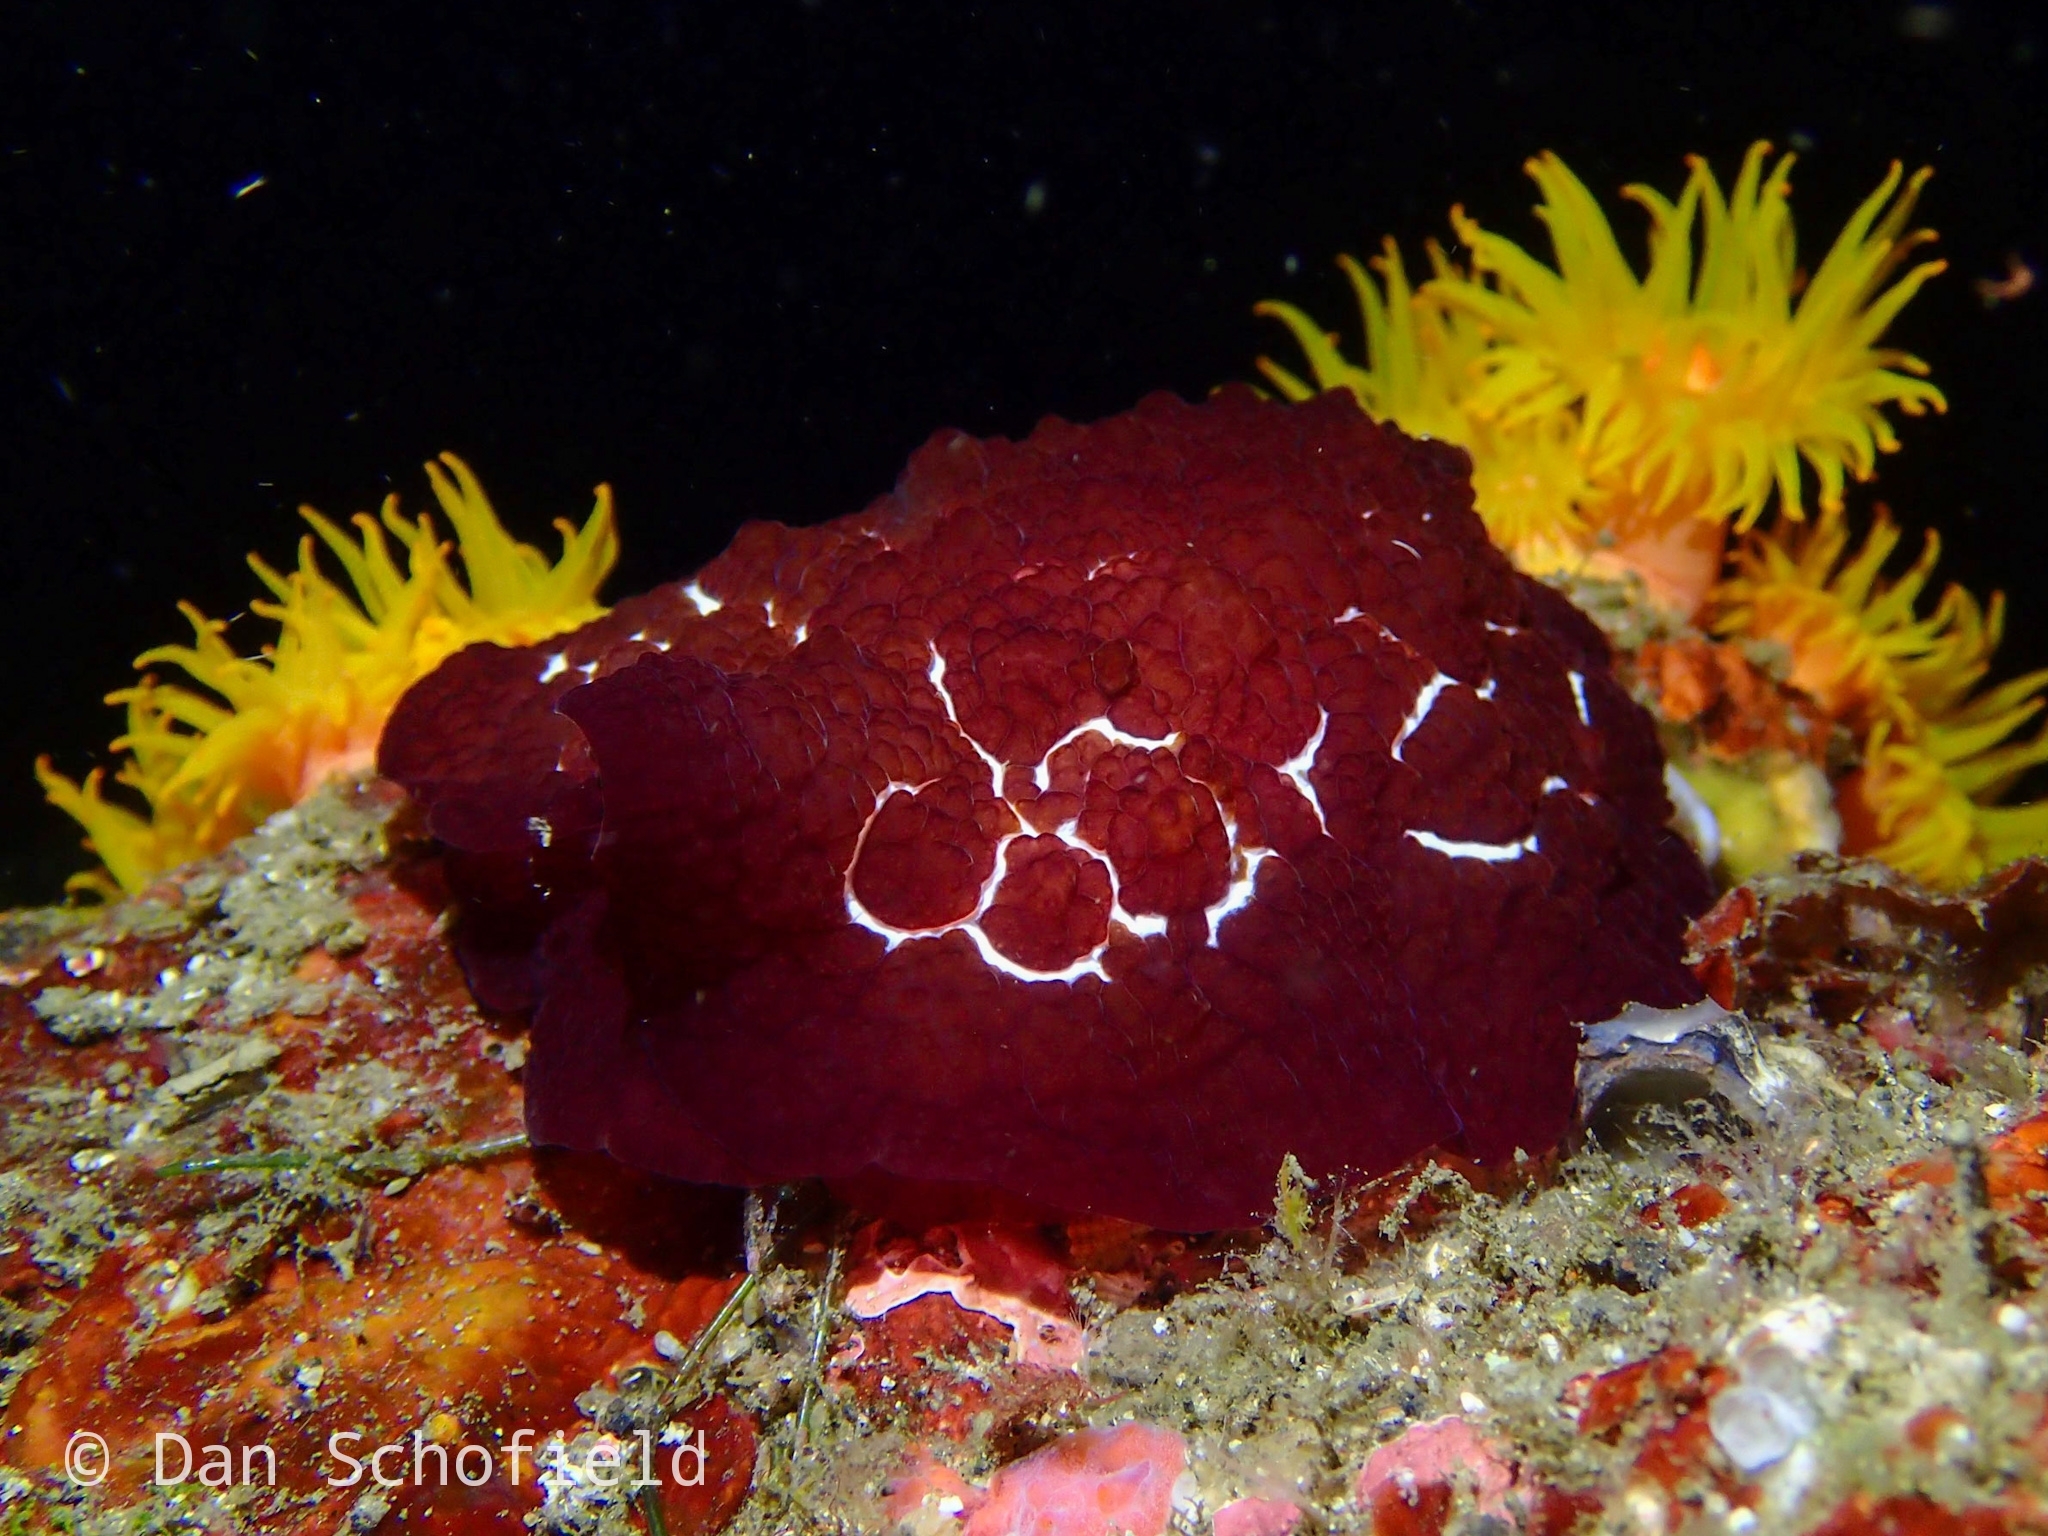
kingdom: Animalia
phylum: Mollusca
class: Gastropoda
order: Pleurobranchida
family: Pleurobranchidae
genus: Pleurobranchus
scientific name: Pleurobranchus forskalii
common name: Forskal's side-gilled sea slug
